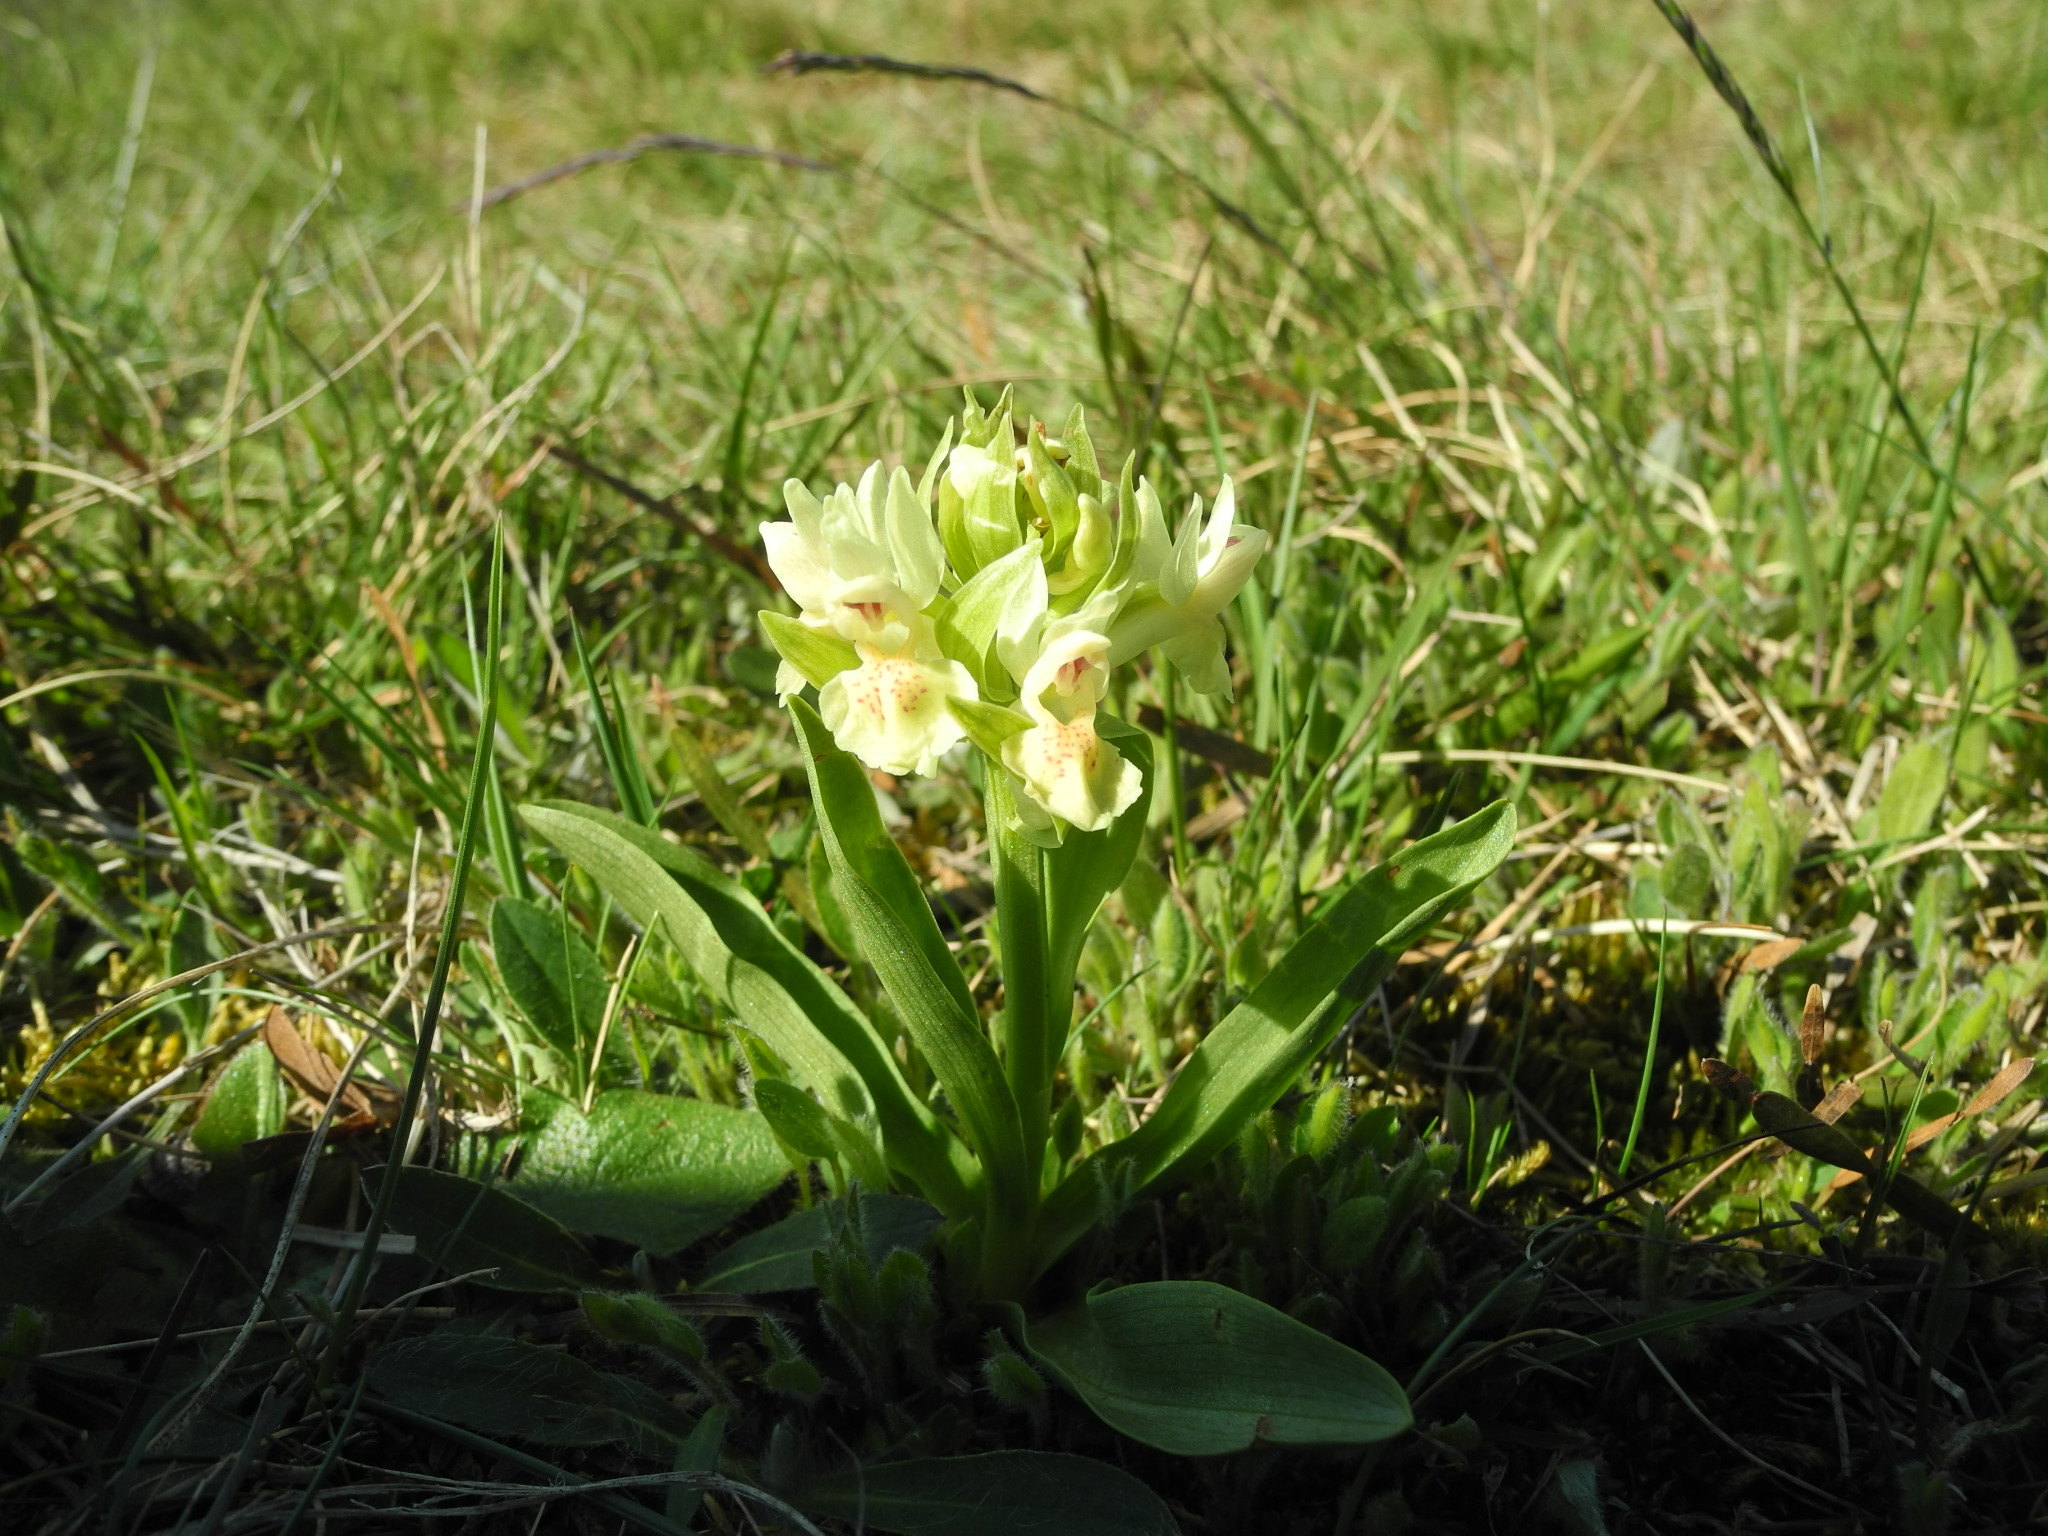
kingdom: Plantae
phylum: Tracheophyta
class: Liliopsida
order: Asparagales
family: Orchidaceae
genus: Dactylorhiza
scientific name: Dactylorhiza sambucina
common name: Elder-flowered orchid
